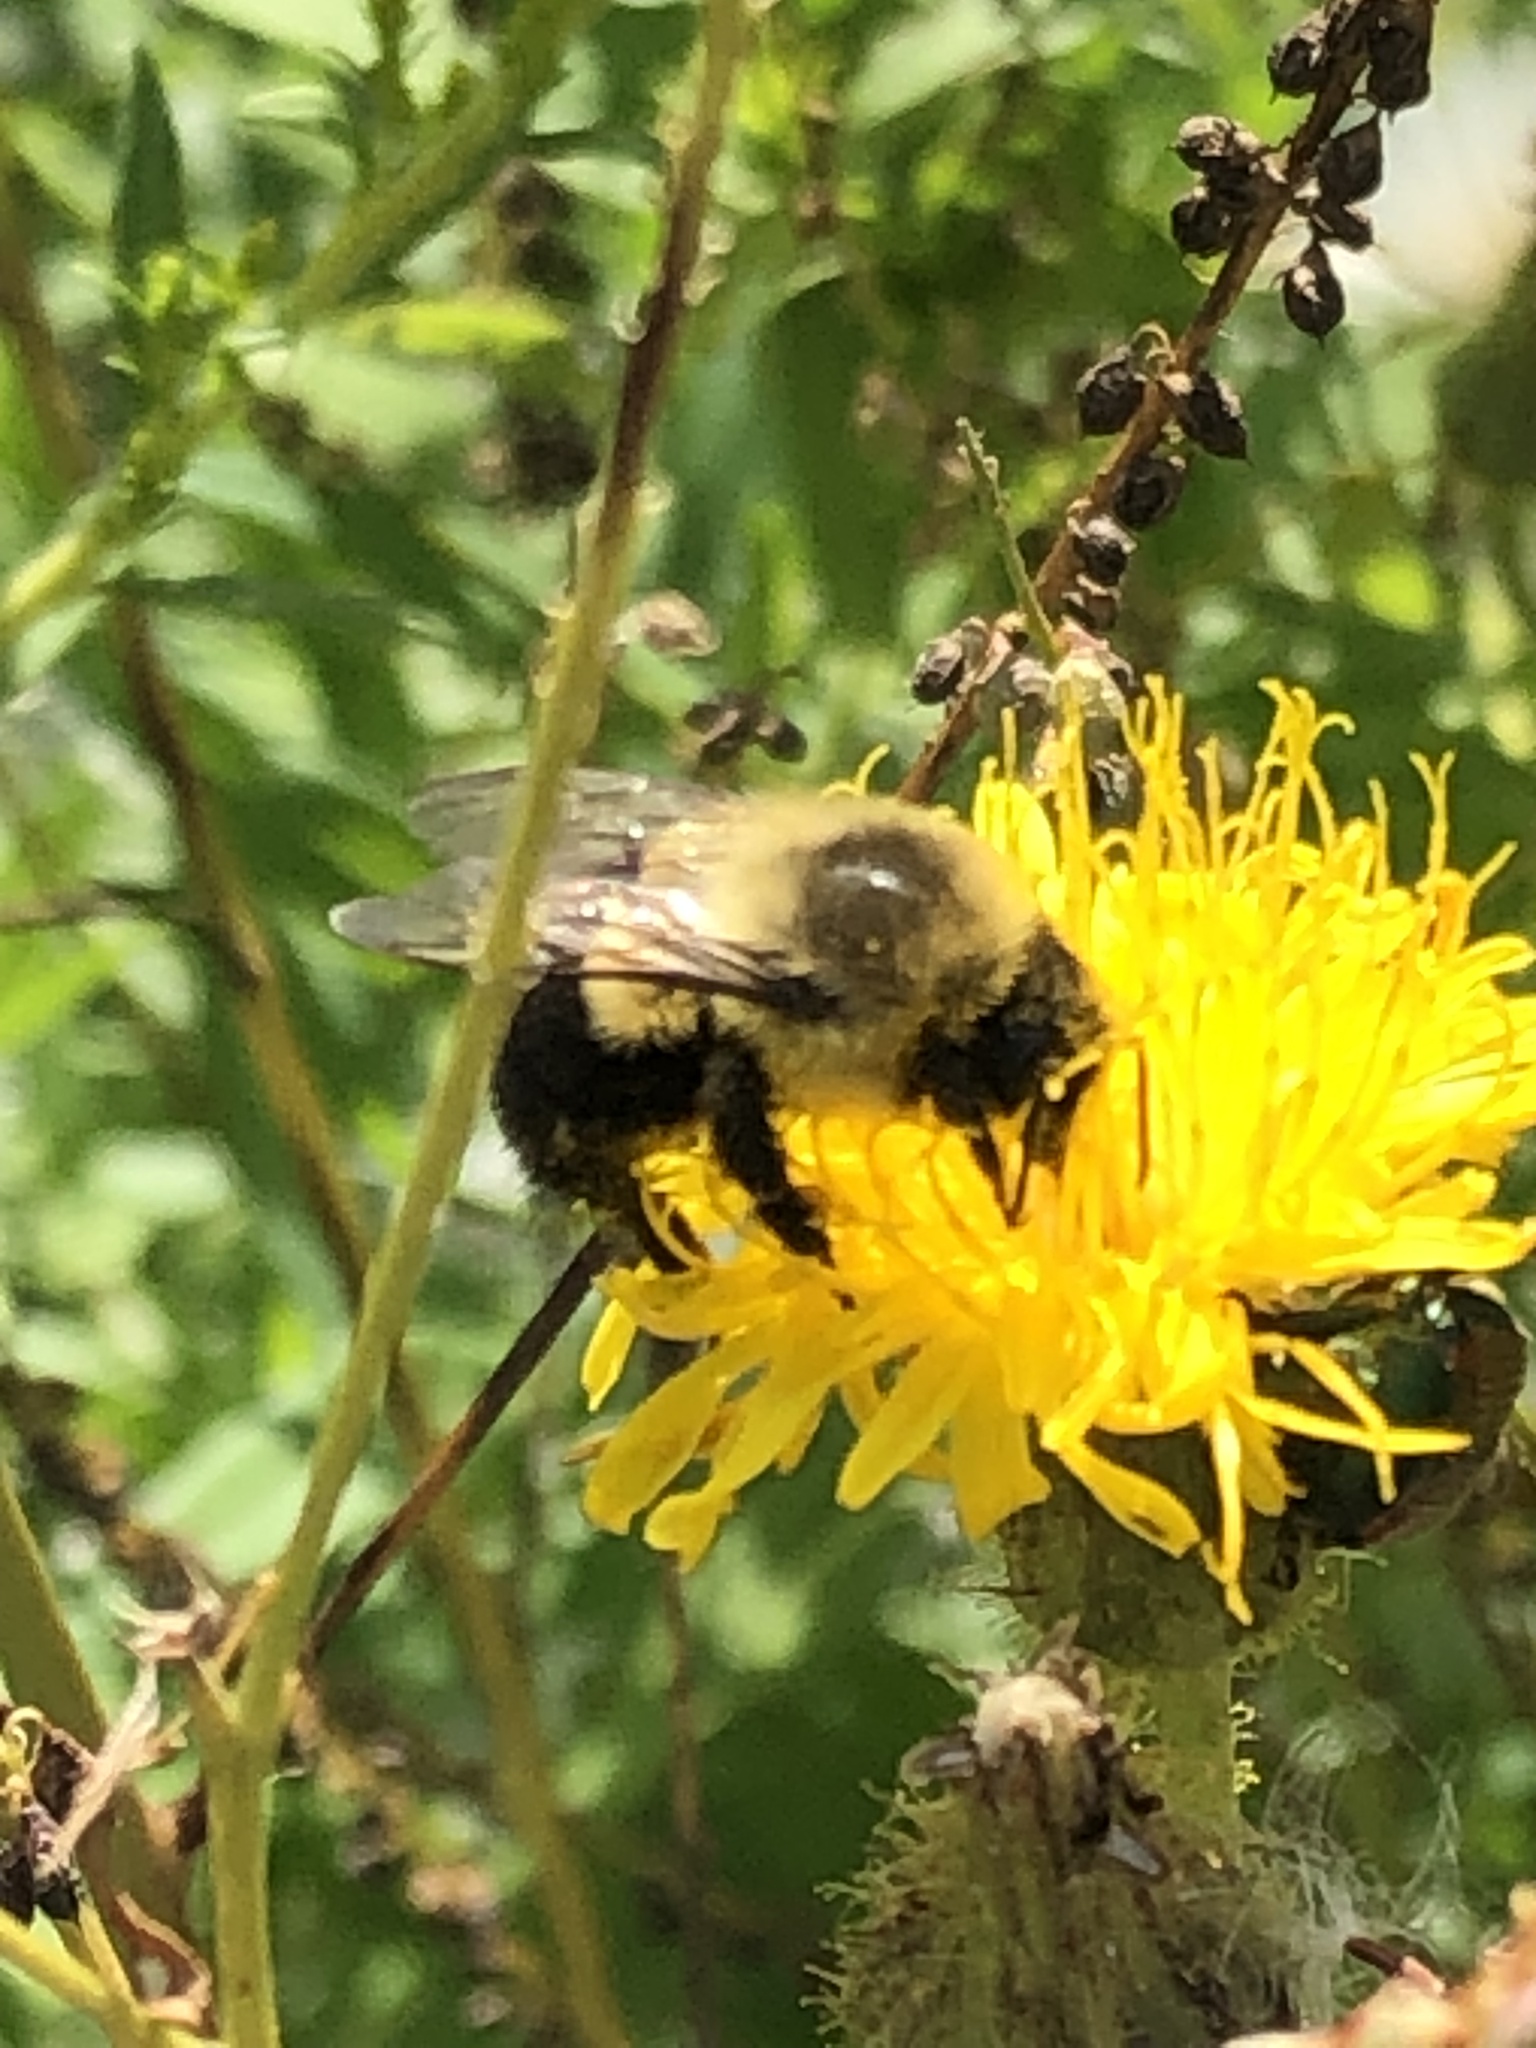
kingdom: Animalia
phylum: Arthropoda
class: Insecta
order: Hymenoptera
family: Apidae
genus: Bombus
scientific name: Bombus impatiens
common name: Common eastern bumble bee
